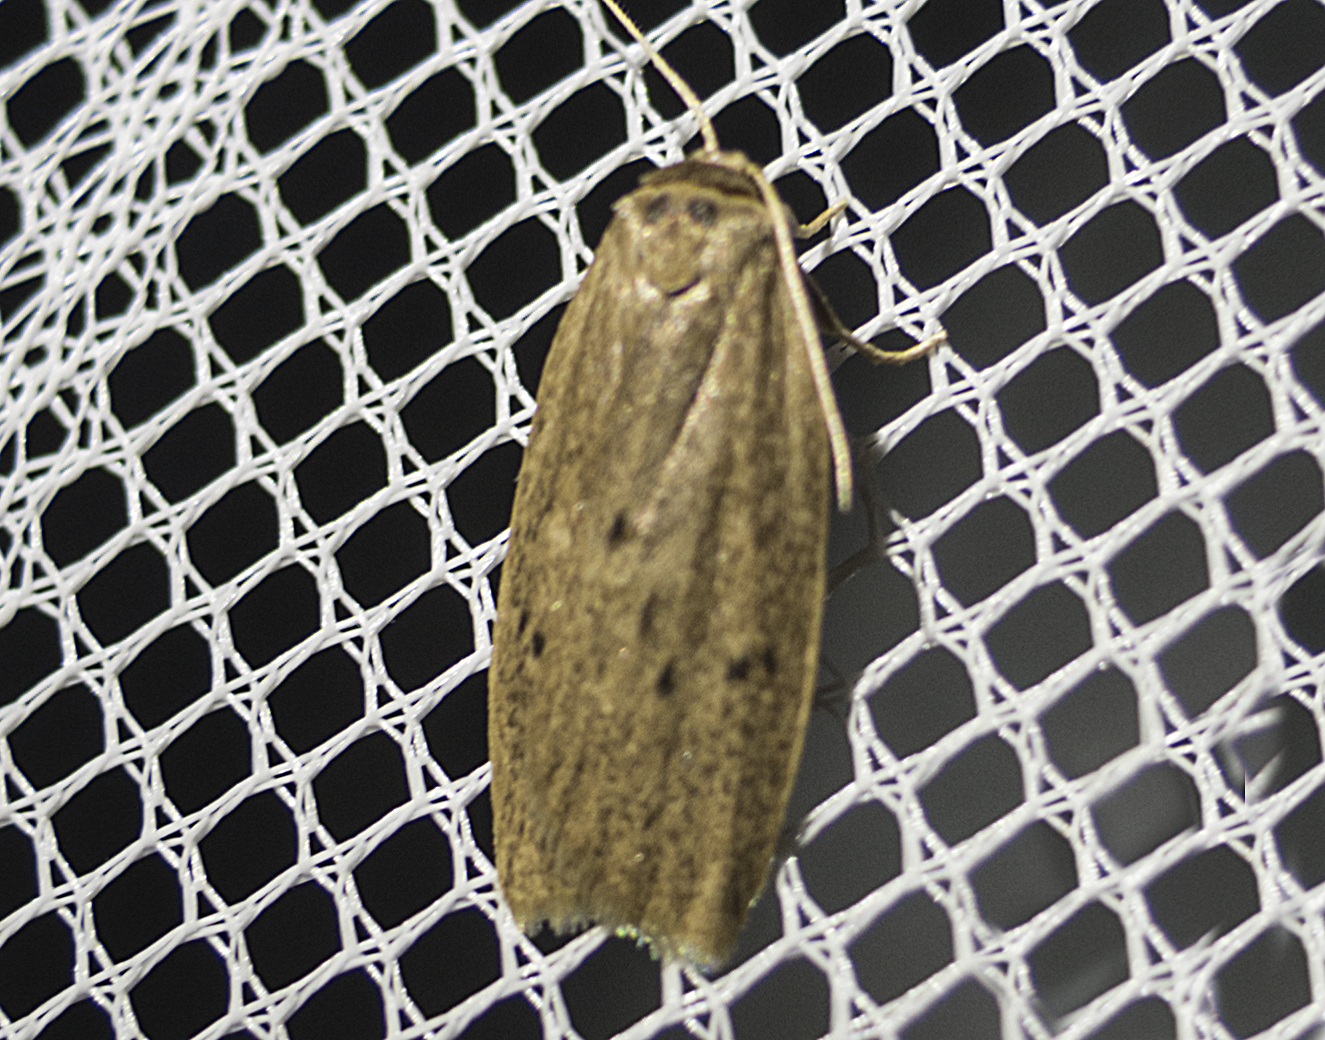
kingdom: Animalia
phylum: Arthropoda
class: Insecta
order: Lepidoptera
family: Erebidae
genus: Pelosia
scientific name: Pelosia obtusa
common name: Small dotted footman
